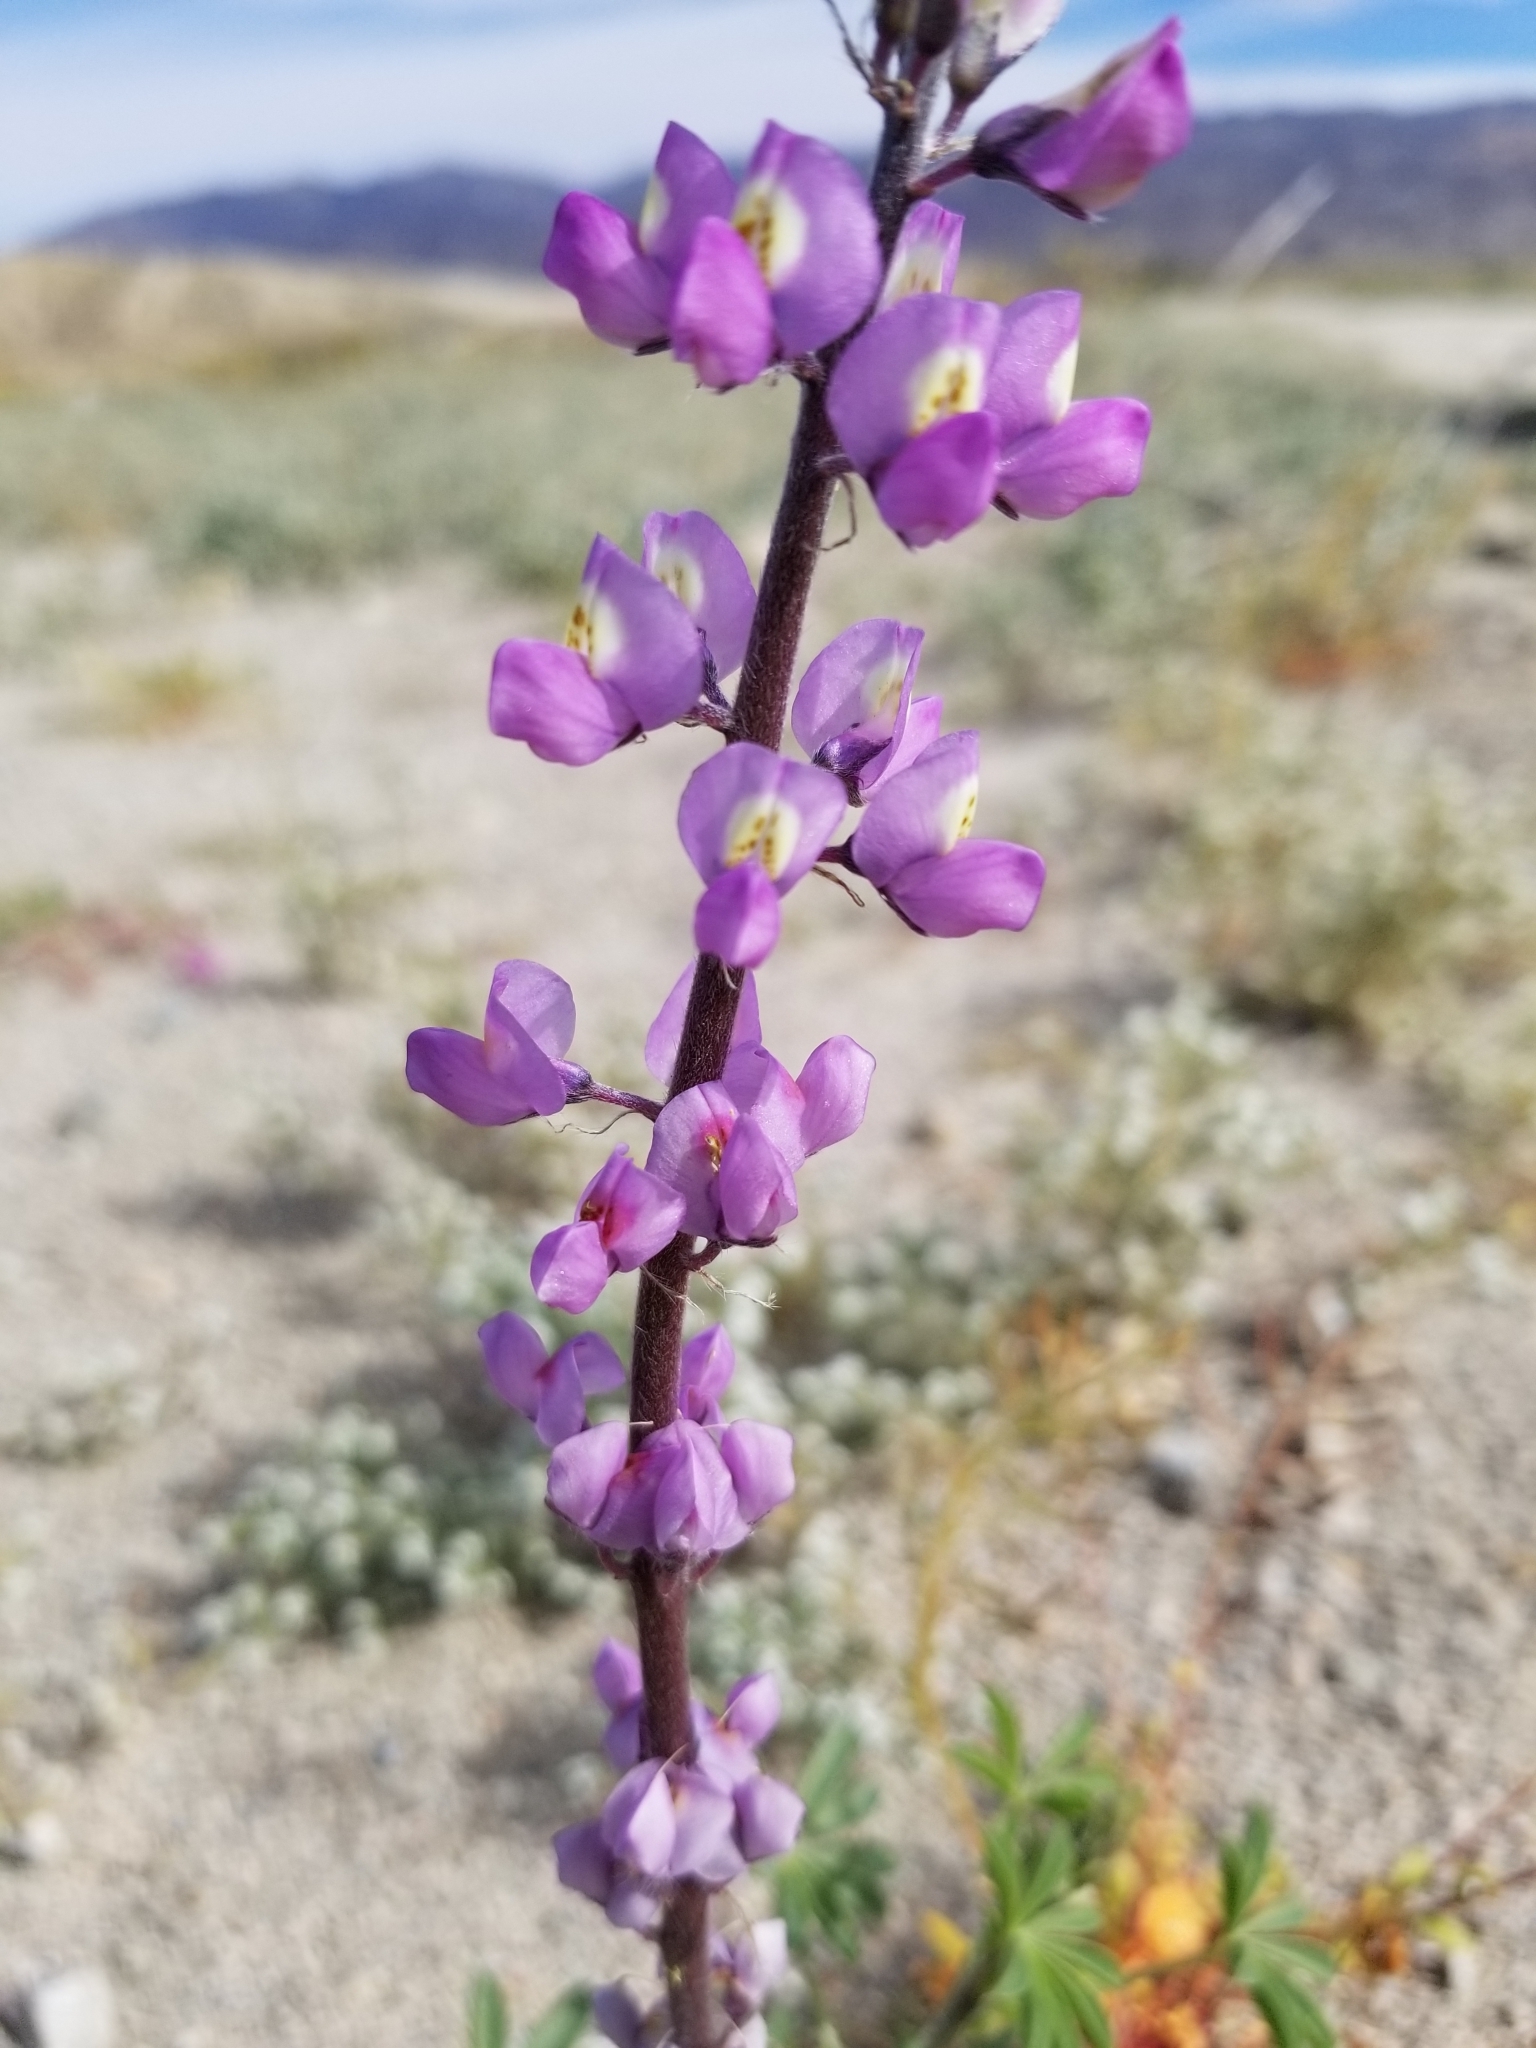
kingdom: Plantae
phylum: Tracheophyta
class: Magnoliopsida
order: Fabales
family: Fabaceae
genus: Lupinus
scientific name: Lupinus arizonicus
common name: Arizona lupine
